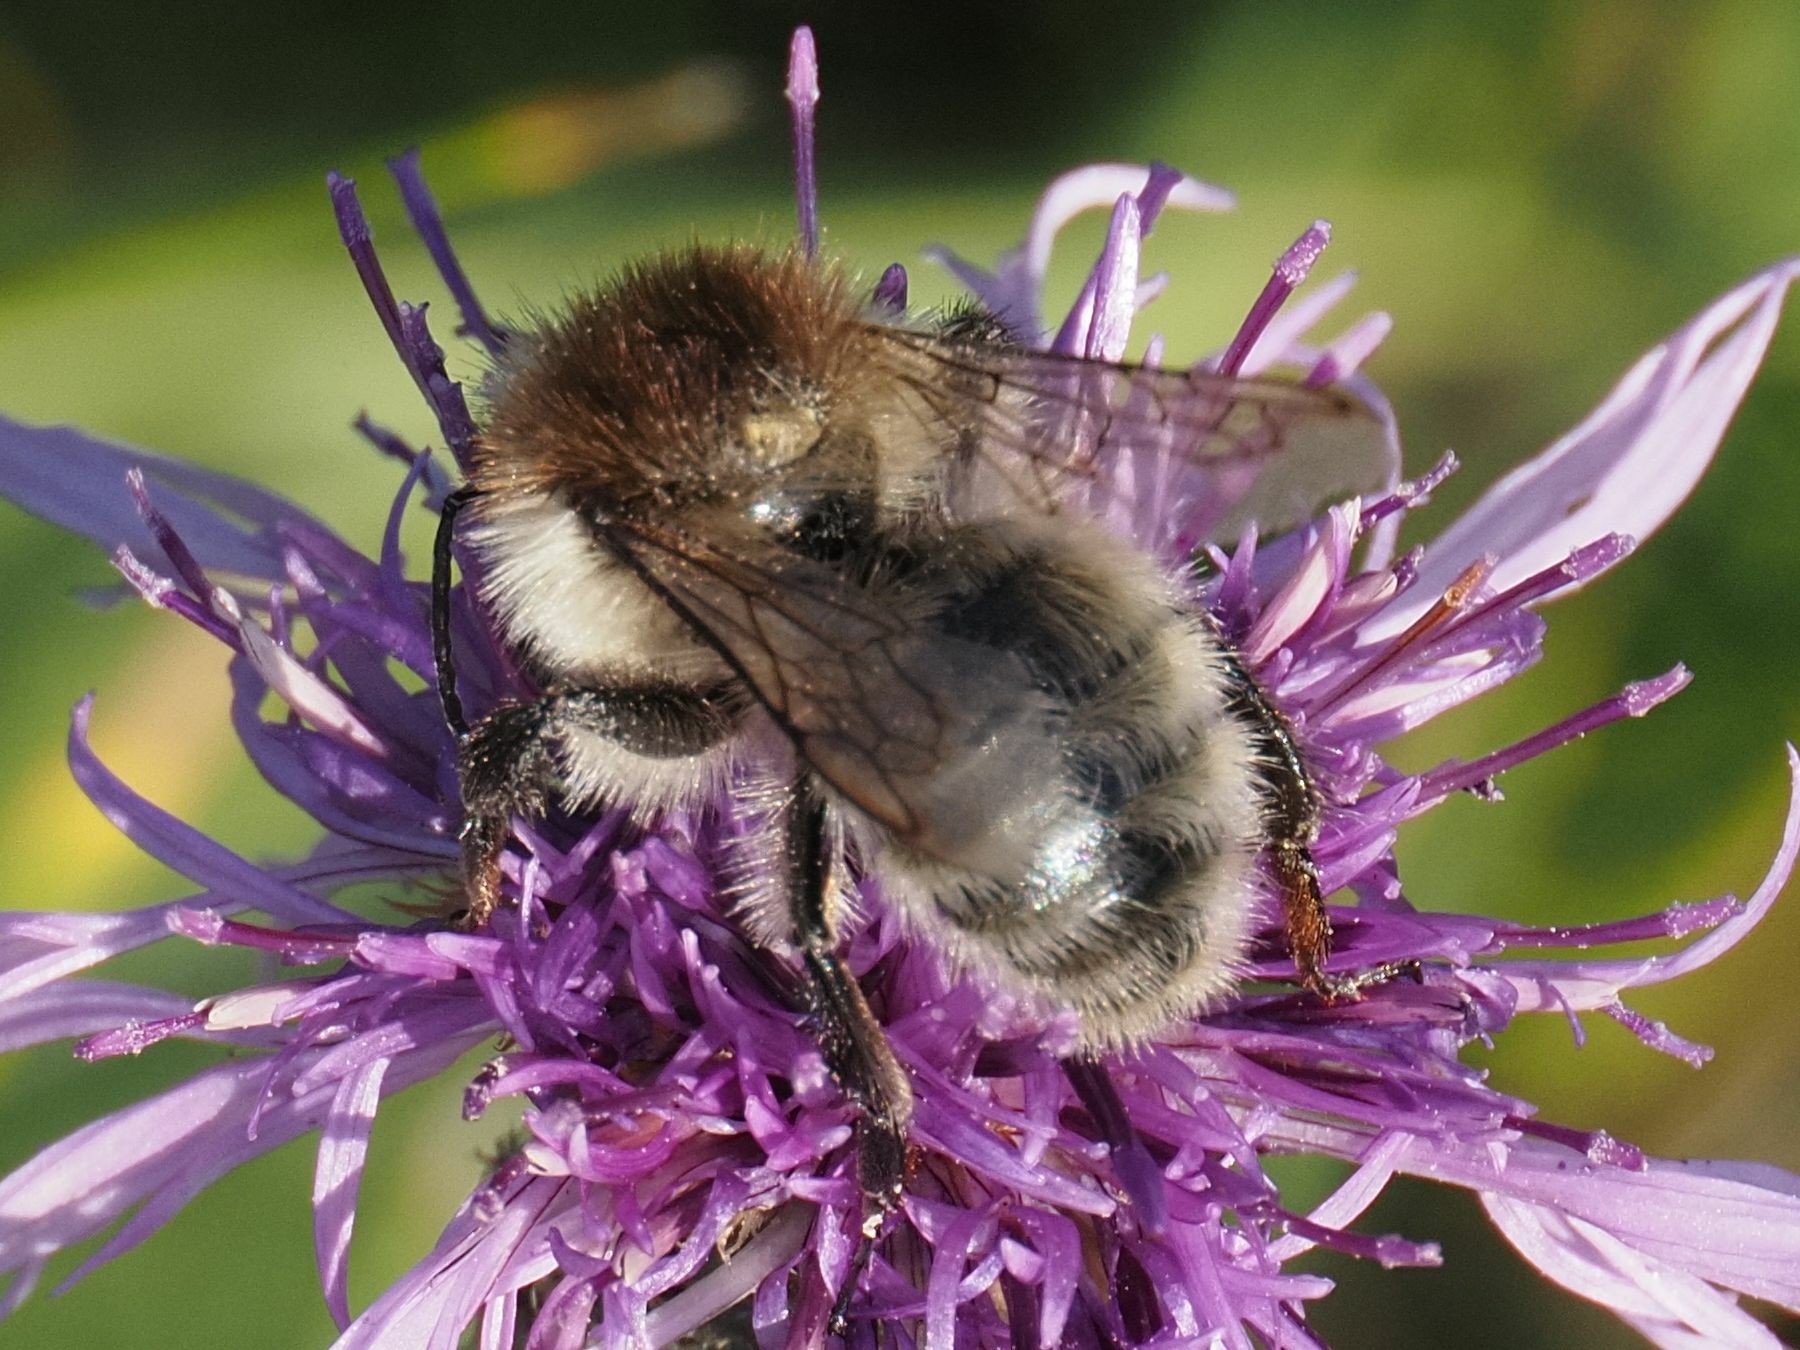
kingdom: Animalia
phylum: Arthropoda
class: Insecta
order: Hymenoptera
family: Apidae
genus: Bombus
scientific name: Bombus humilis
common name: Brown-banded carder-bee
